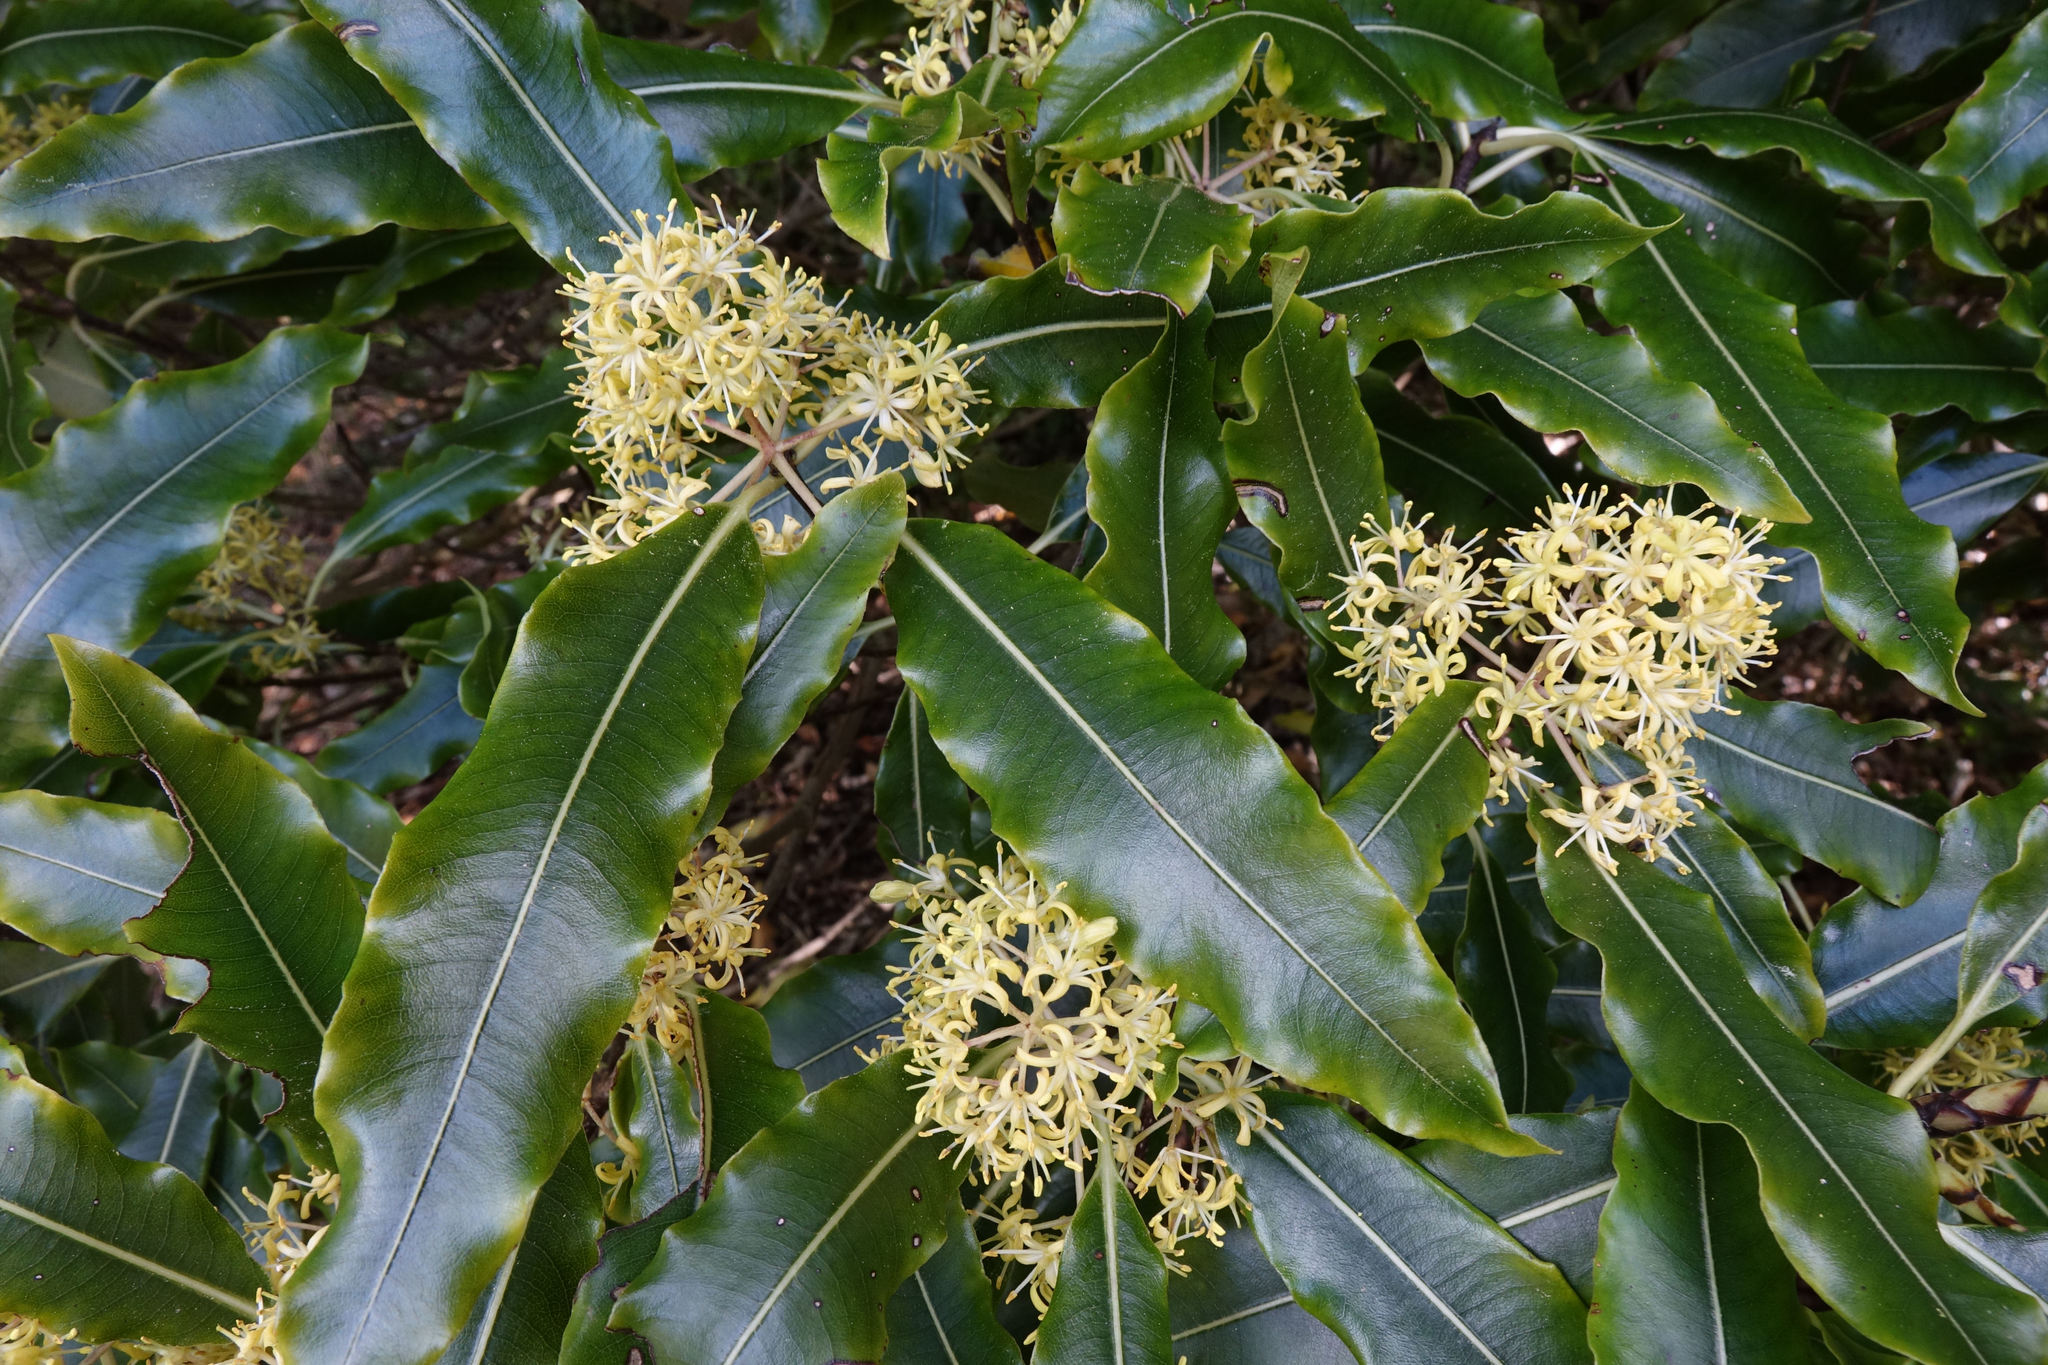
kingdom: Plantae
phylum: Tracheophyta
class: Magnoliopsida
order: Apiales
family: Pittosporaceae
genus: Pittosporum
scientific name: Pittosporum eugenioides
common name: Lemonwood
